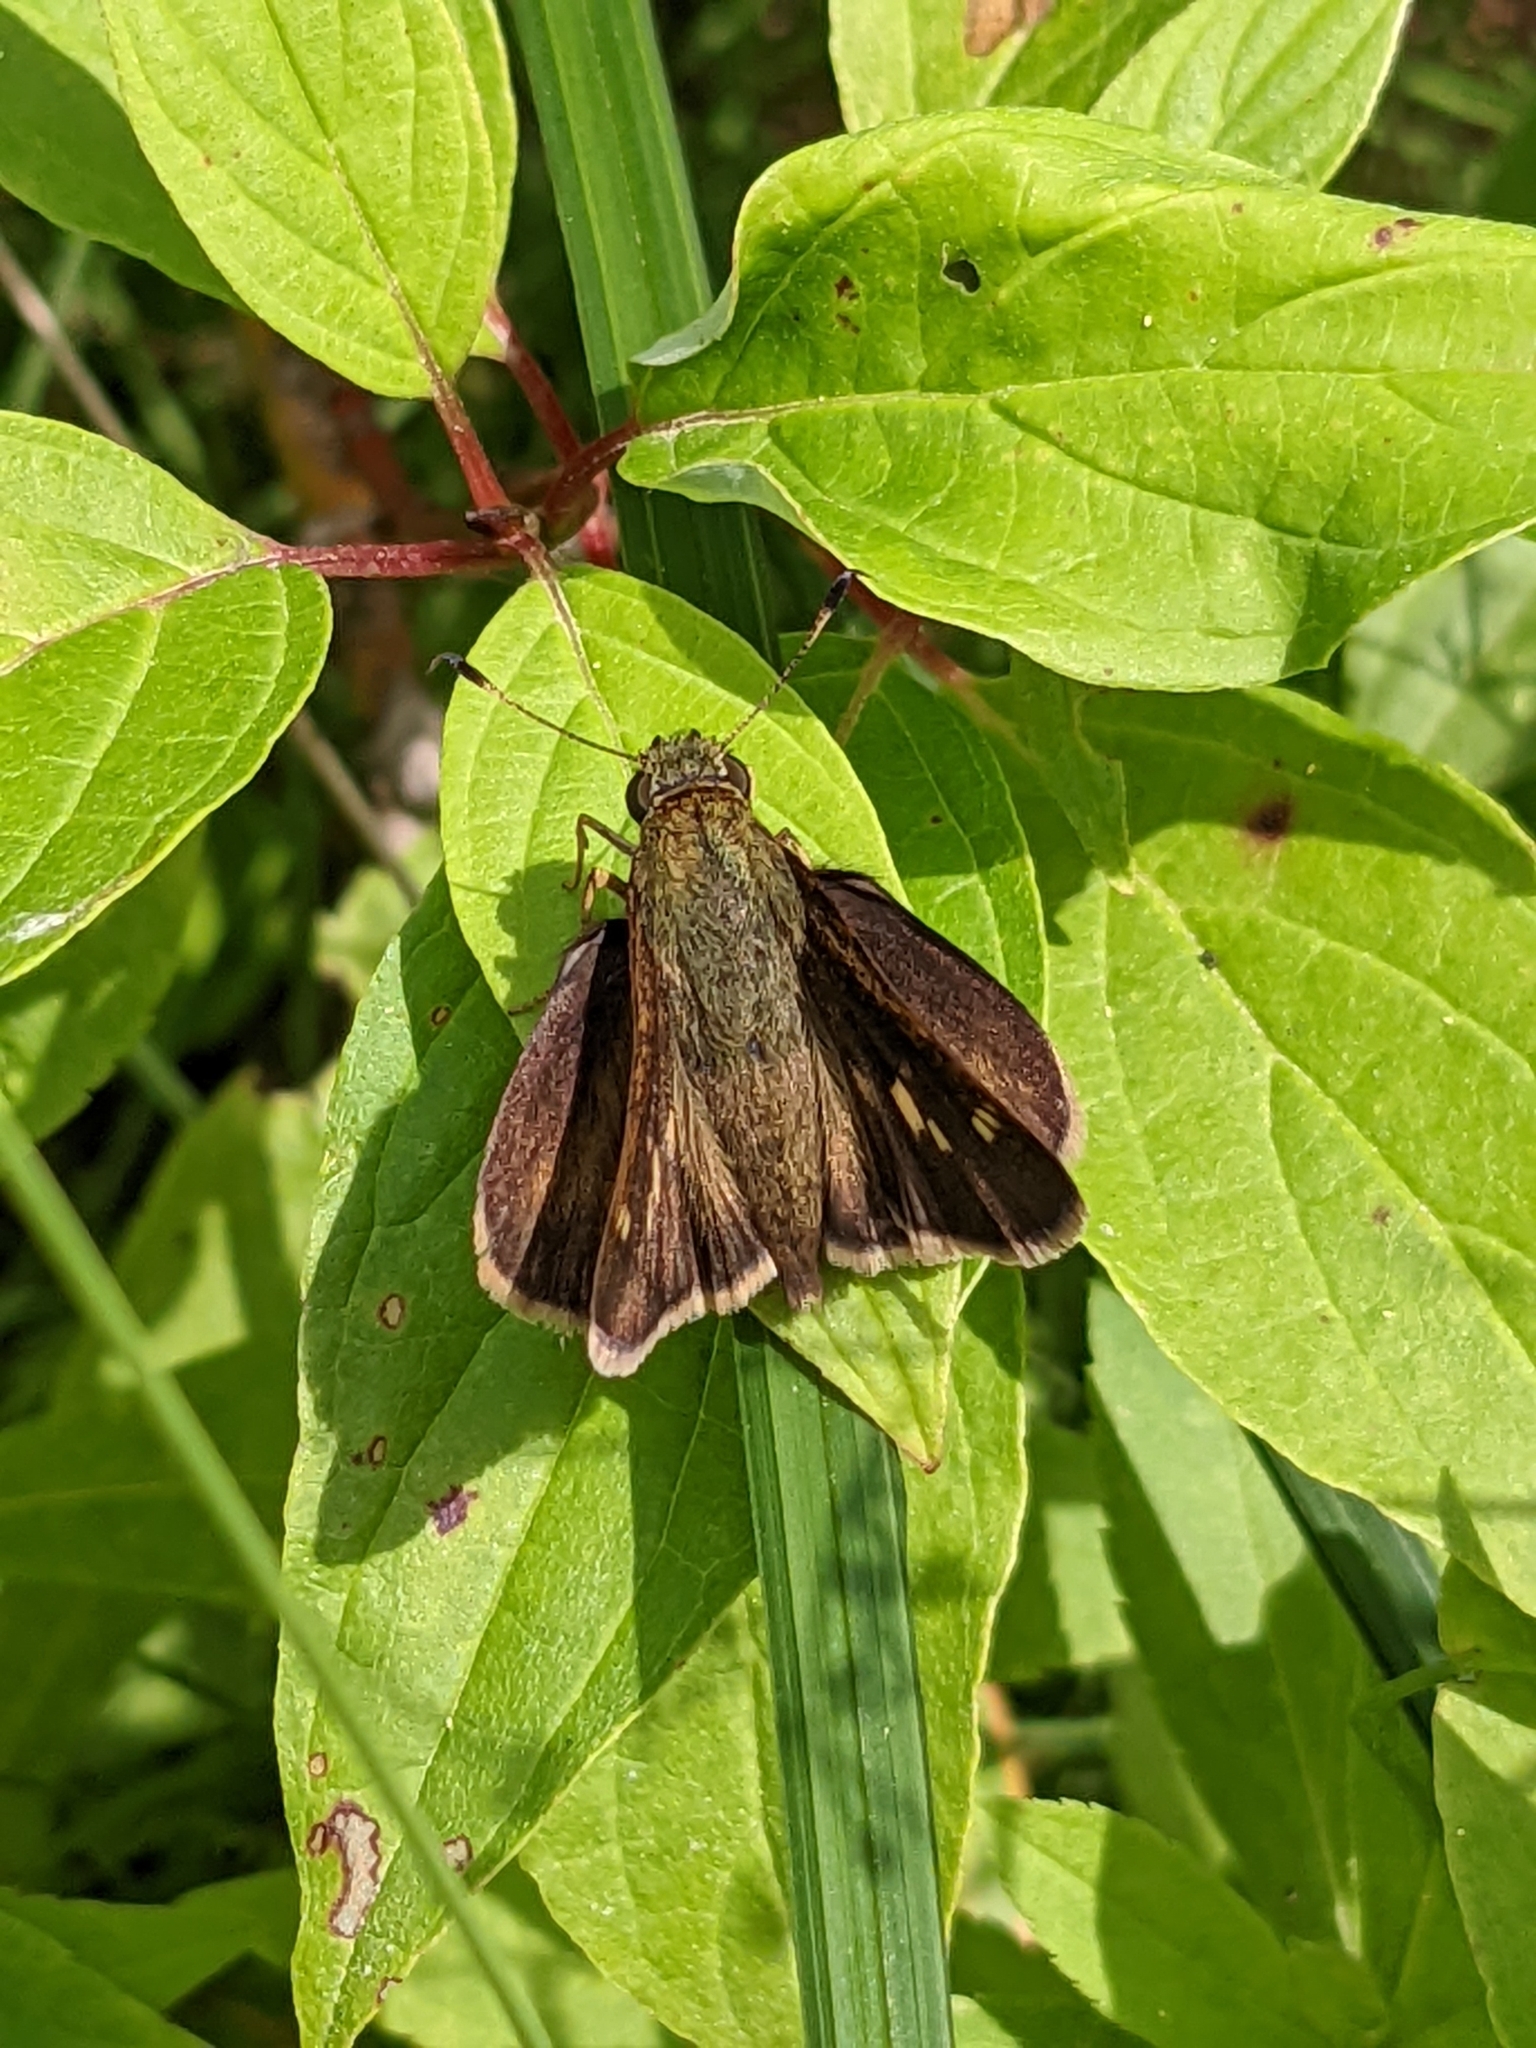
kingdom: Animalia
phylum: Arthropoda
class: Insecta
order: Lepidoptera
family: Hesperiidae
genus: Vernia
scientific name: Vernia verna
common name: Little glassywing
